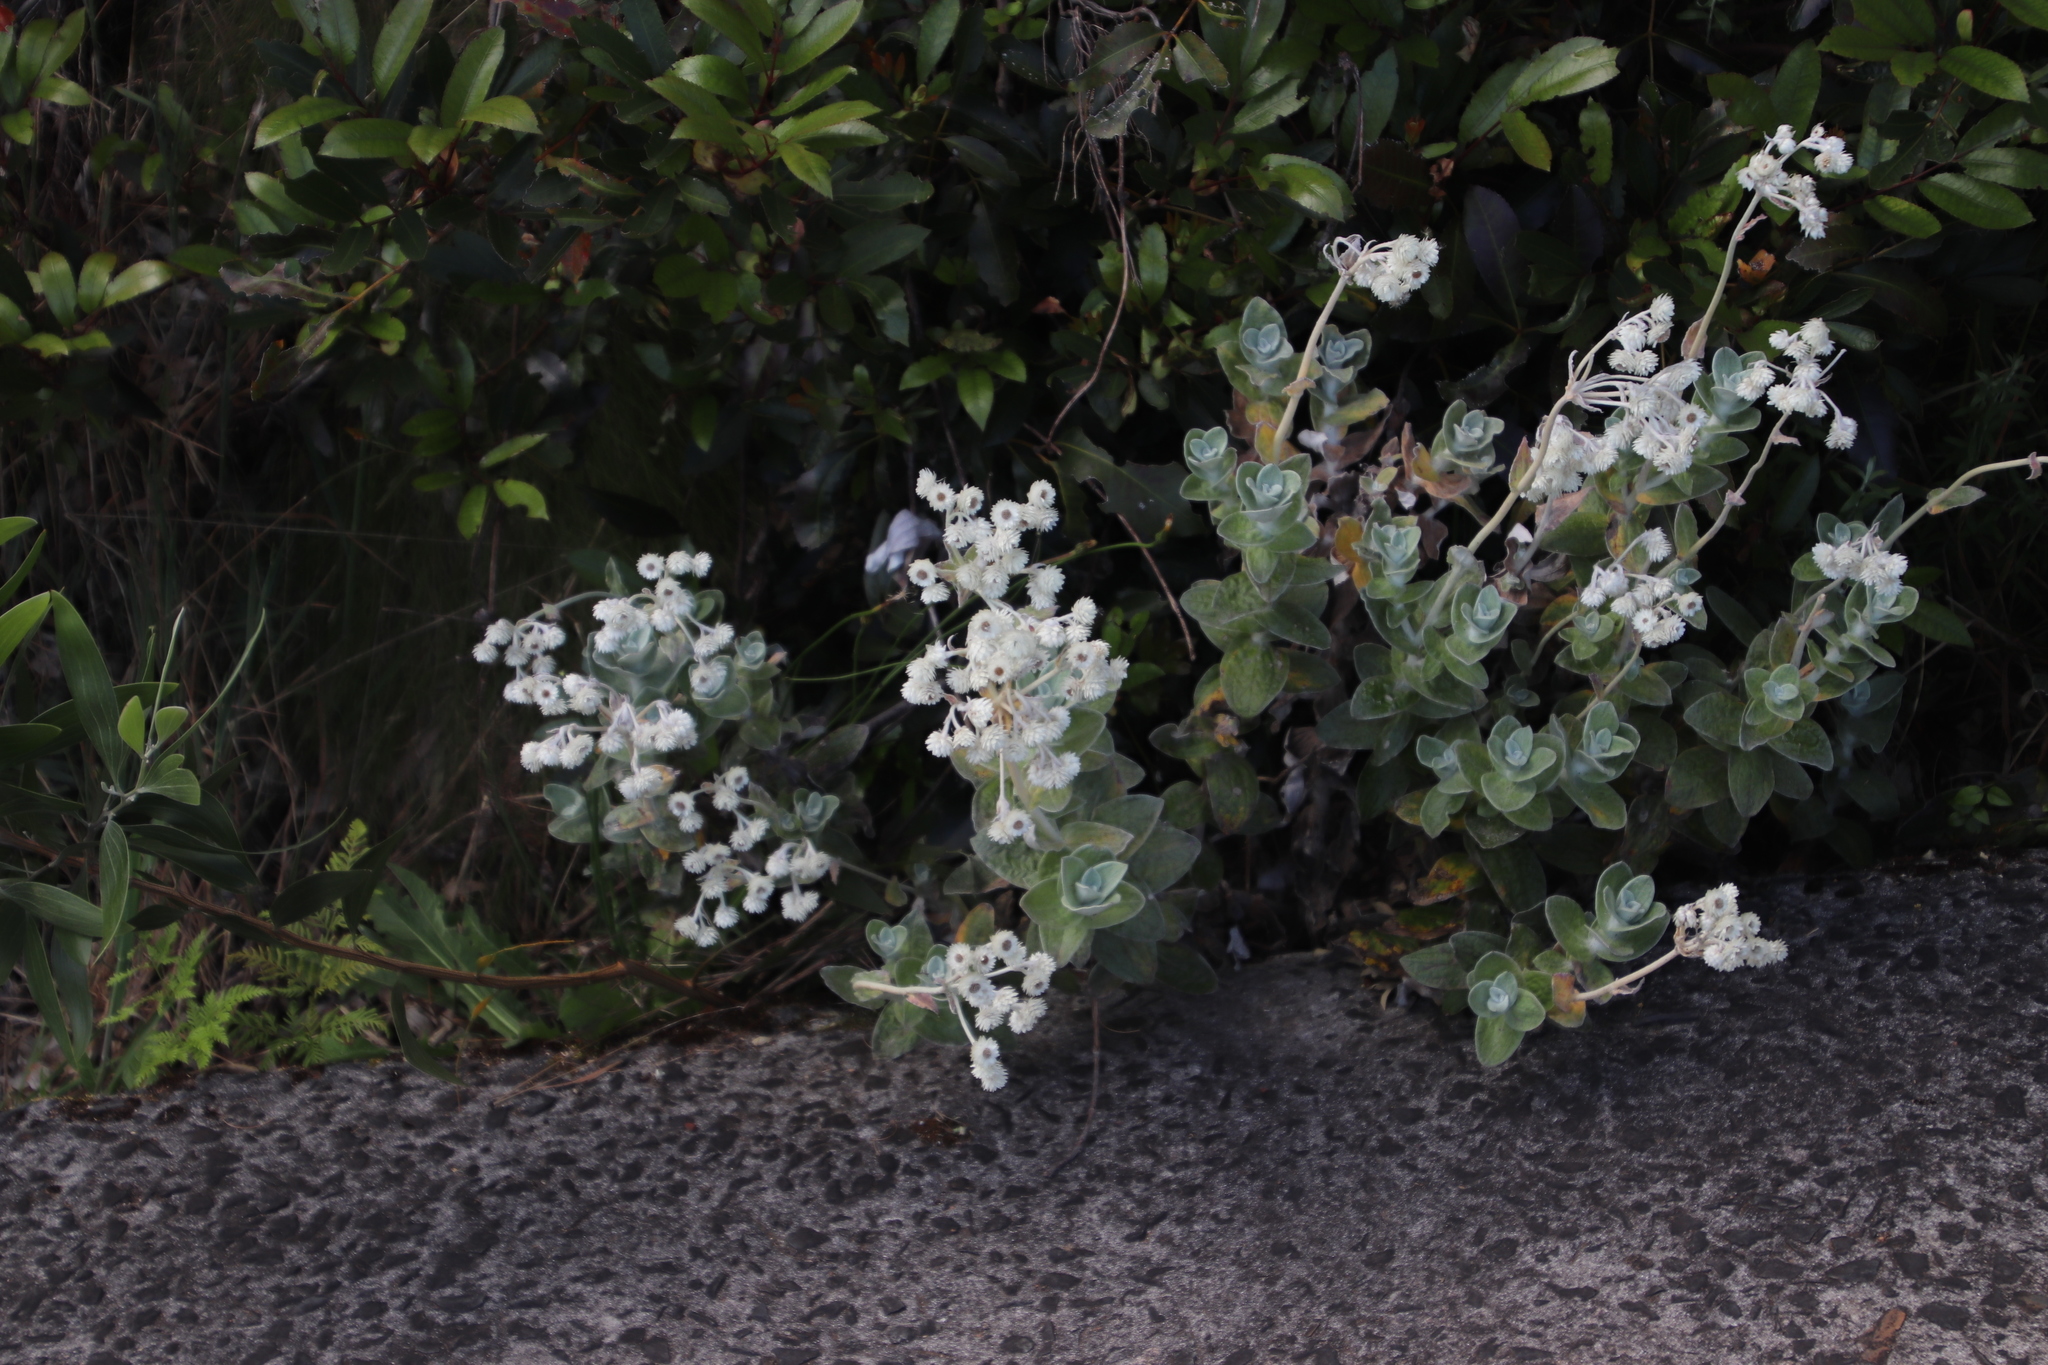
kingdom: Plantae
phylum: Tracheophyta
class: Magnoliopsida
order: Asterales
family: Asteraceae
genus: Helichrysum
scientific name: Helichrysum fruticans
